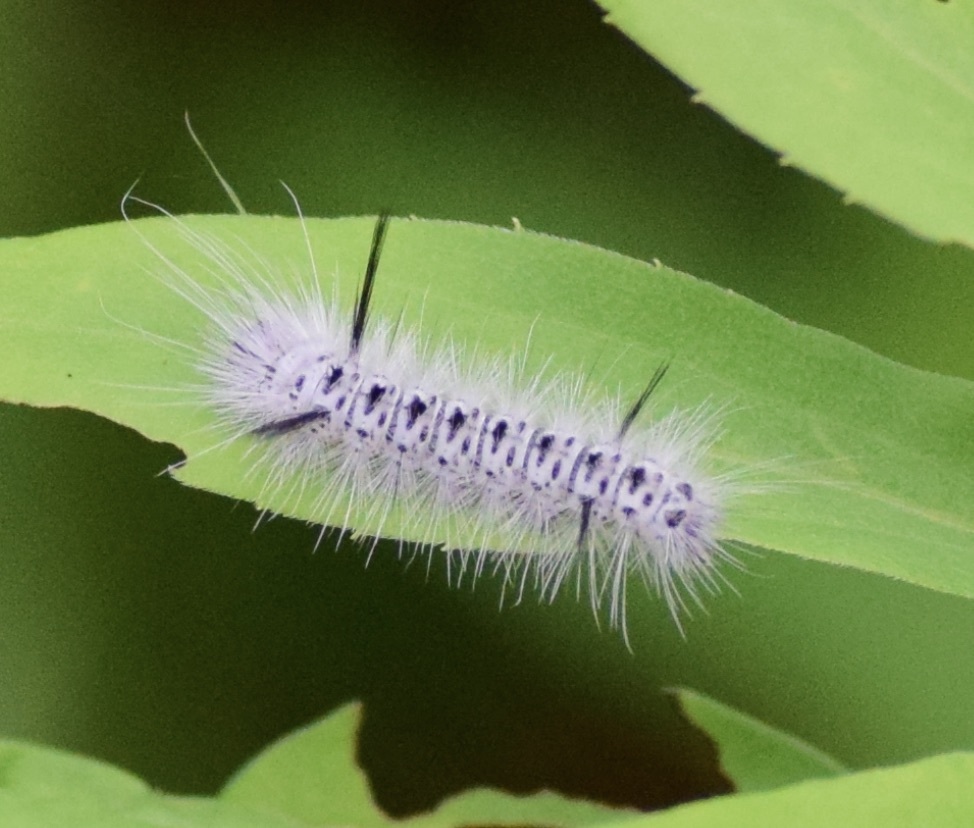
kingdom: Animalia
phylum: Arthropoda
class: Insecta
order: Lepidoptera
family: Erebidae
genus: Lophocampa
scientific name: Lophocampa caryae
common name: Hickory tussock moth
